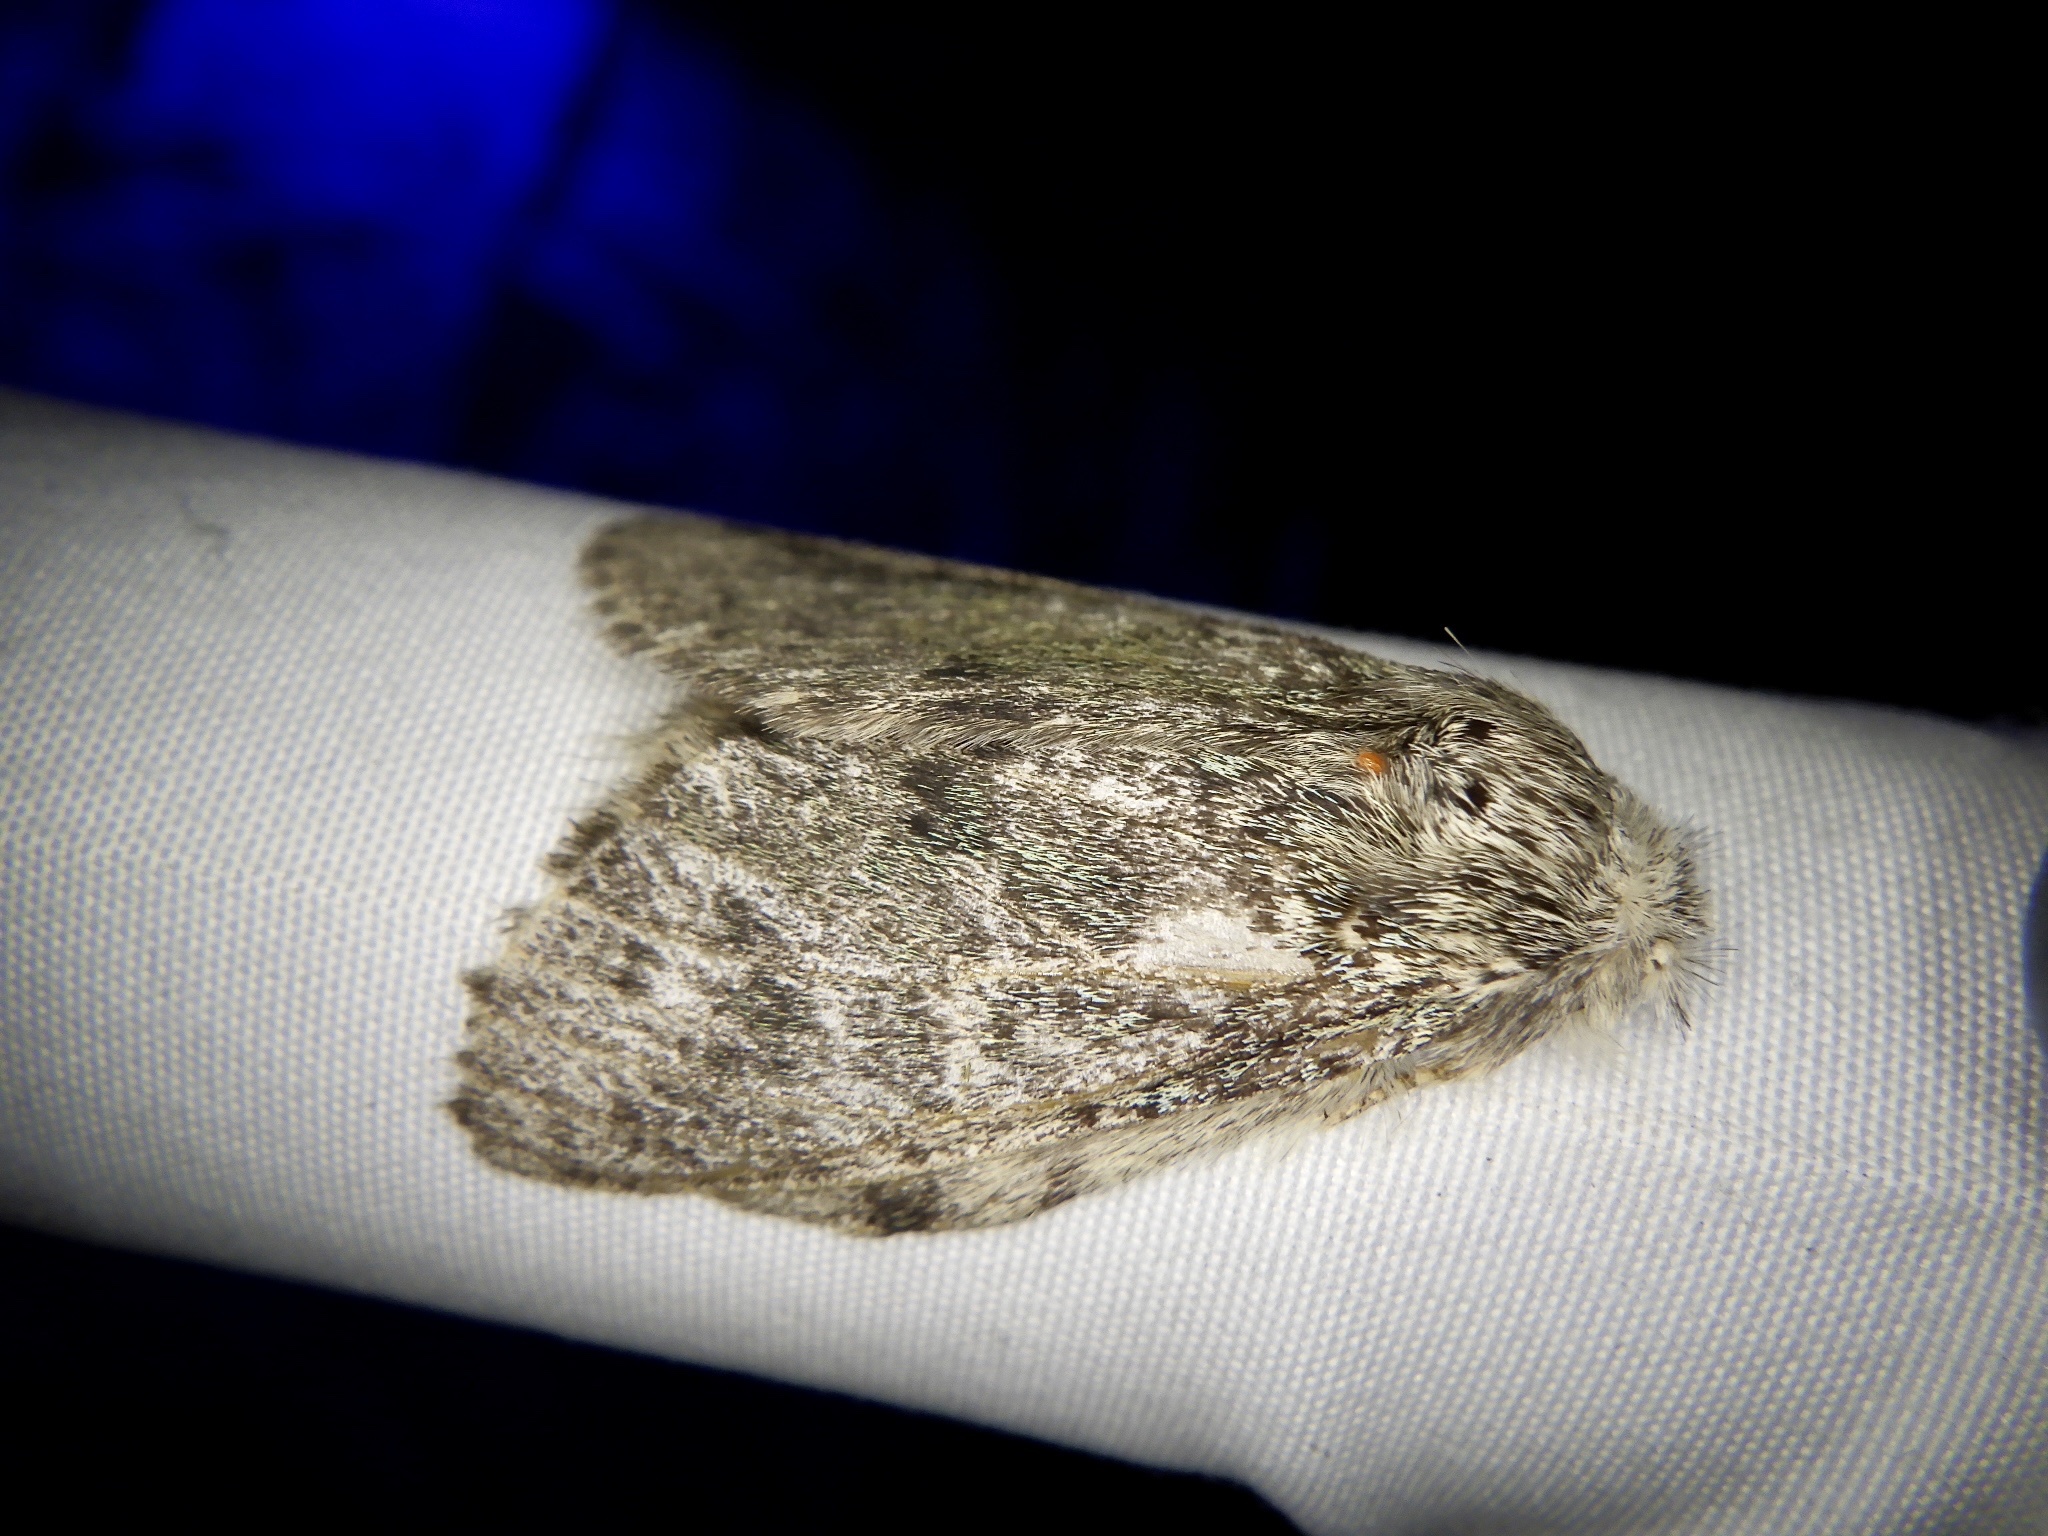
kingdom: Animalia
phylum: Arthropoda
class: Insecta
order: Lepidoptera
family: Notodontidae
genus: Syntypistis
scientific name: Syntypistis punctatella
